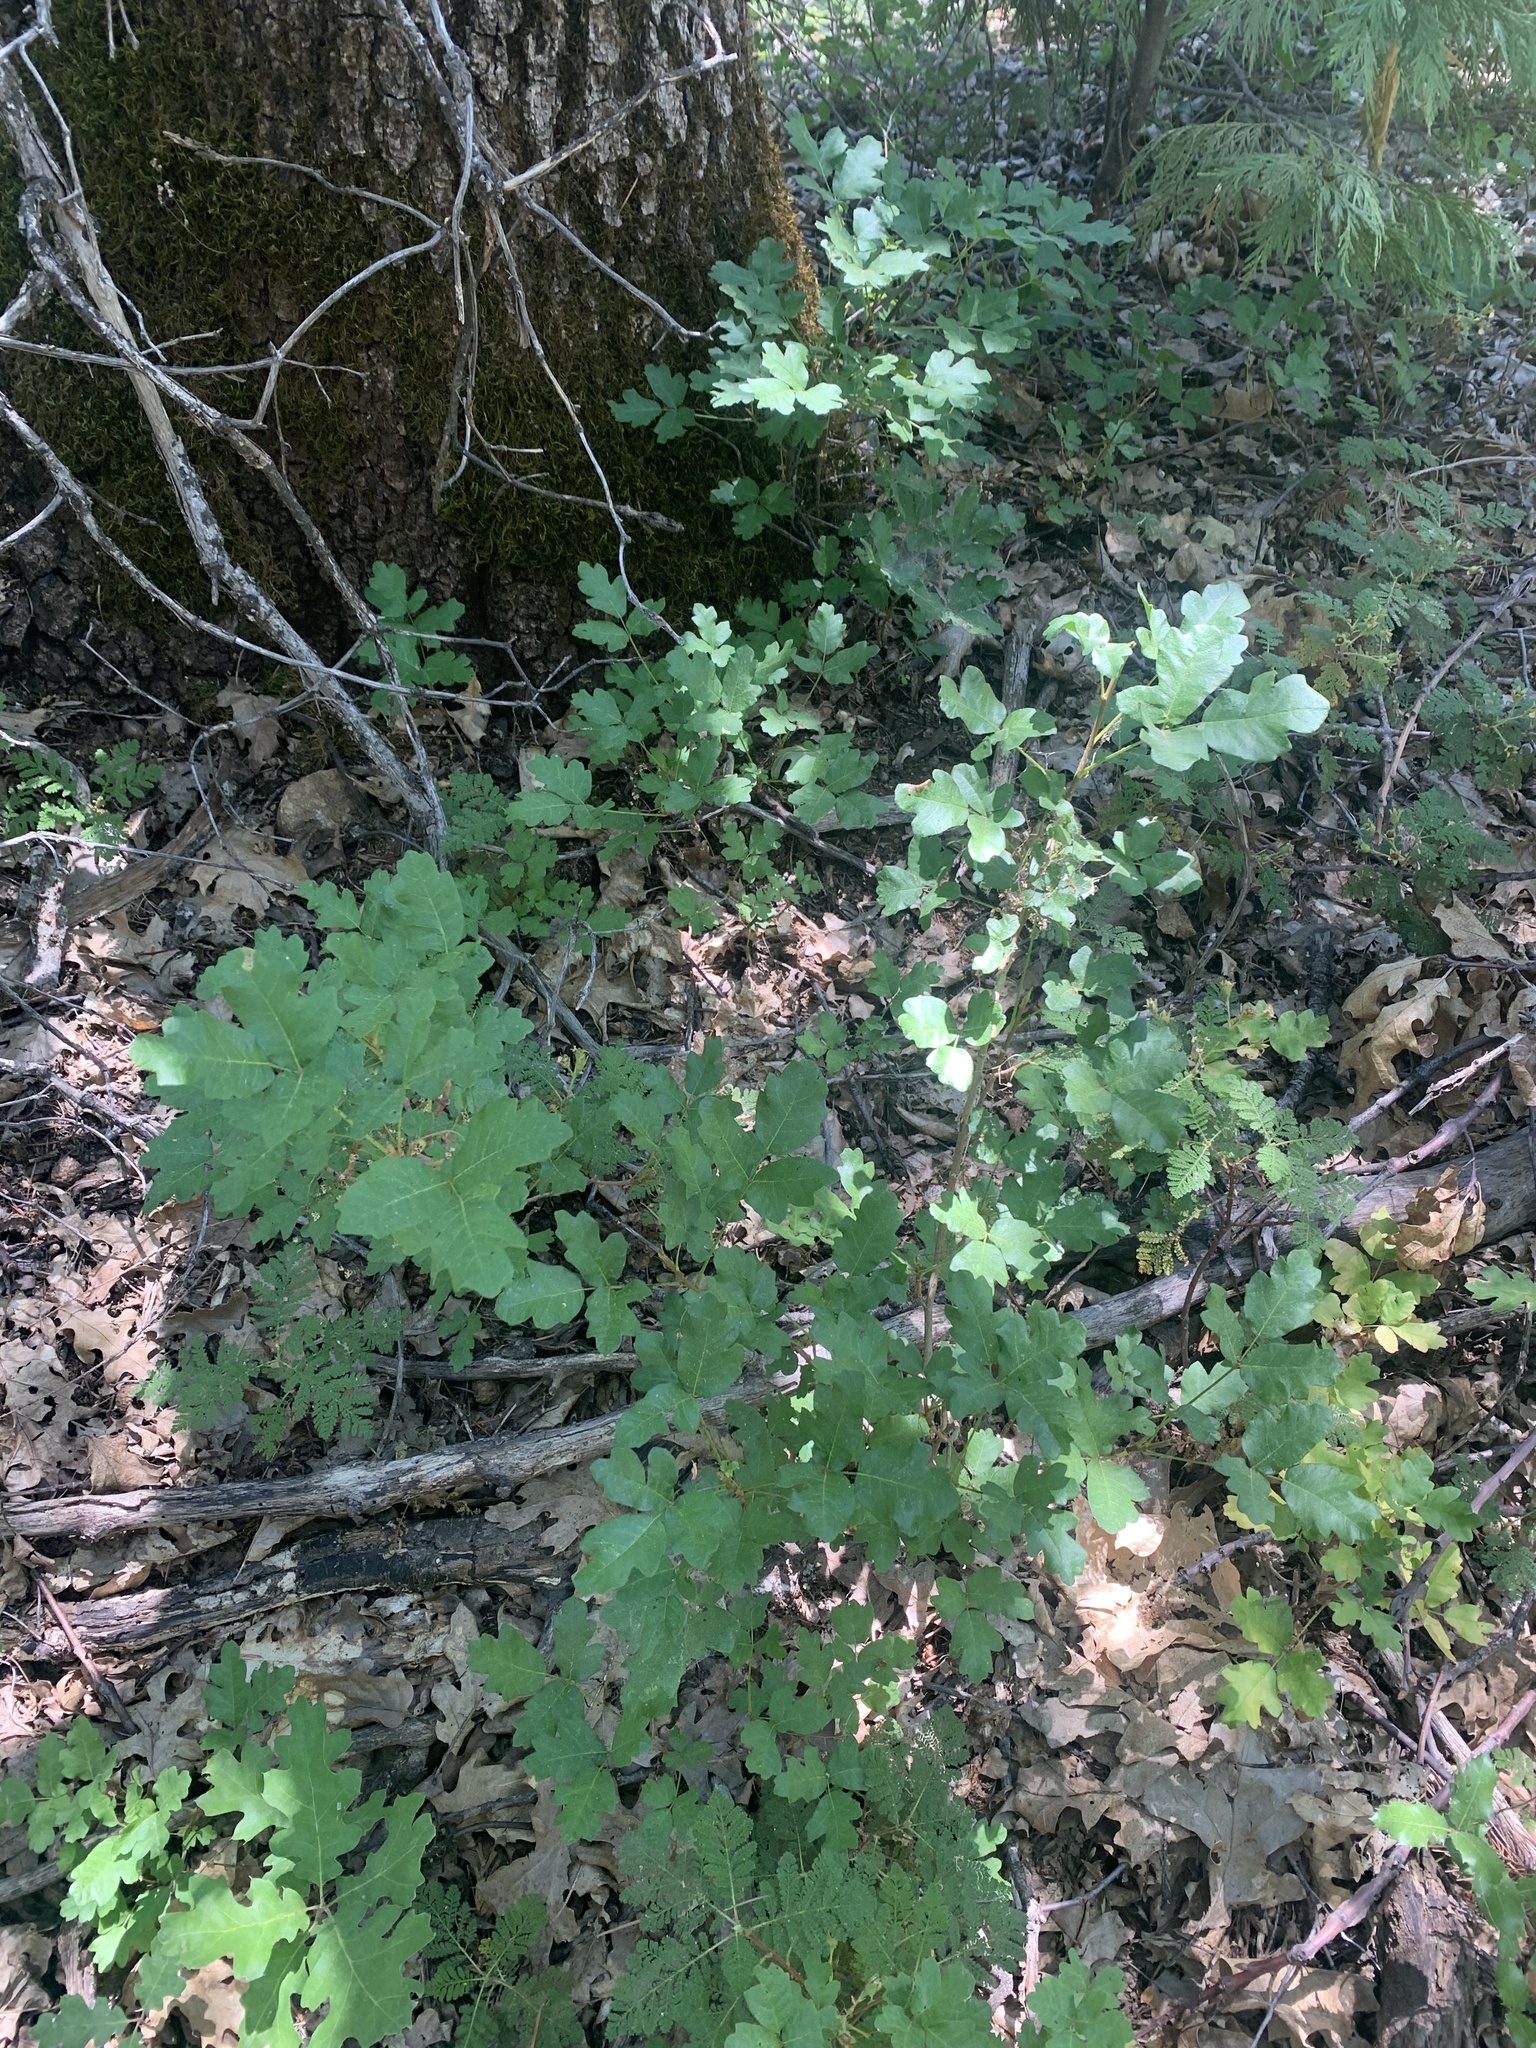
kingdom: Plantae
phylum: Tracheophyta
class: Magnoliopsida
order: Sapindales
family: Anacardiaceae
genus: Toxicodendron
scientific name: Toxicodendron diversilobum
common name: Pacific poison-oak
